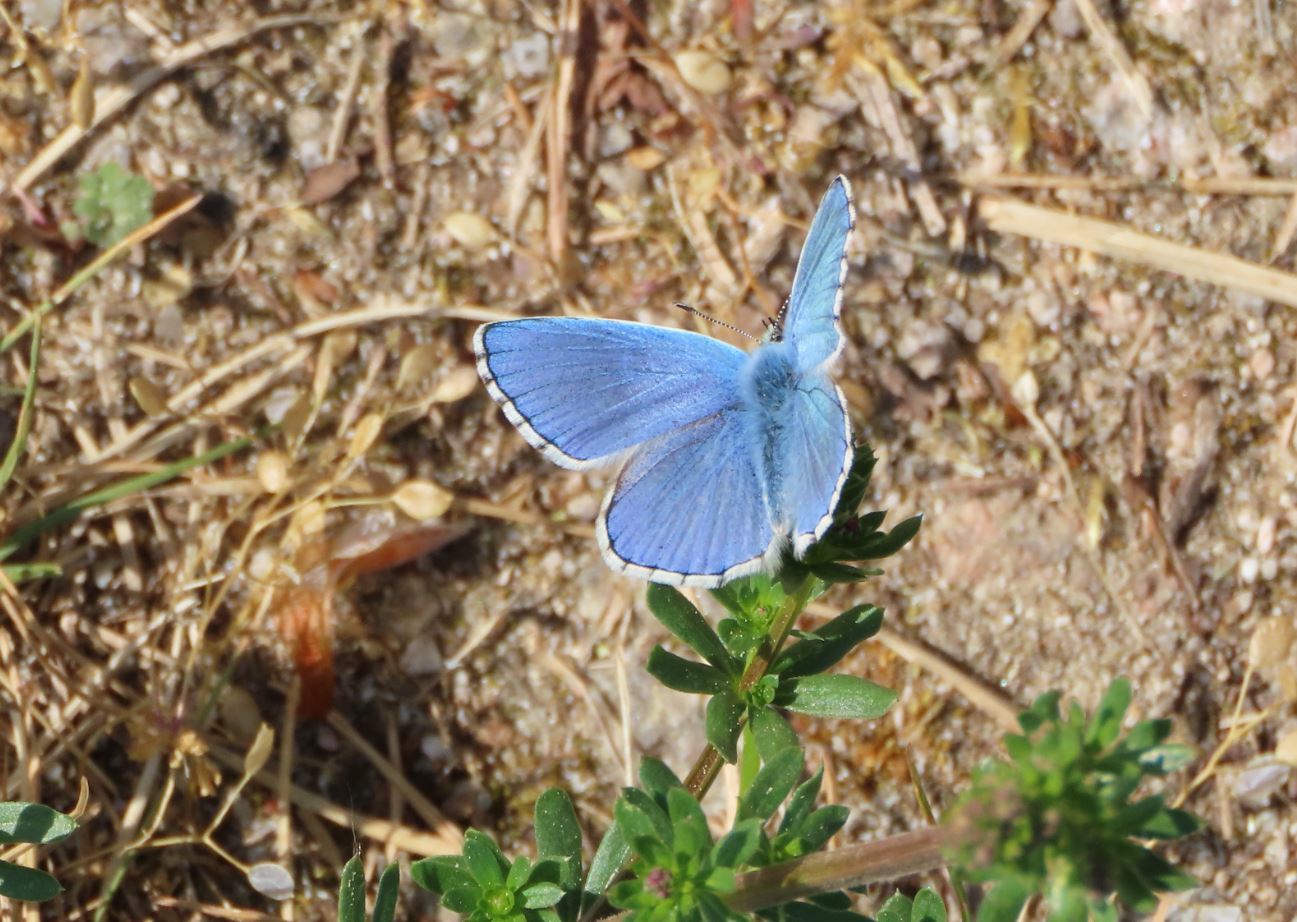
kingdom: Animalia
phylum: Arthropoda
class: Insecta
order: Lepidoptera
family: Lycaenidae
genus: Lysandra
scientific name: Lysandra bellargus
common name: Adonis blue
